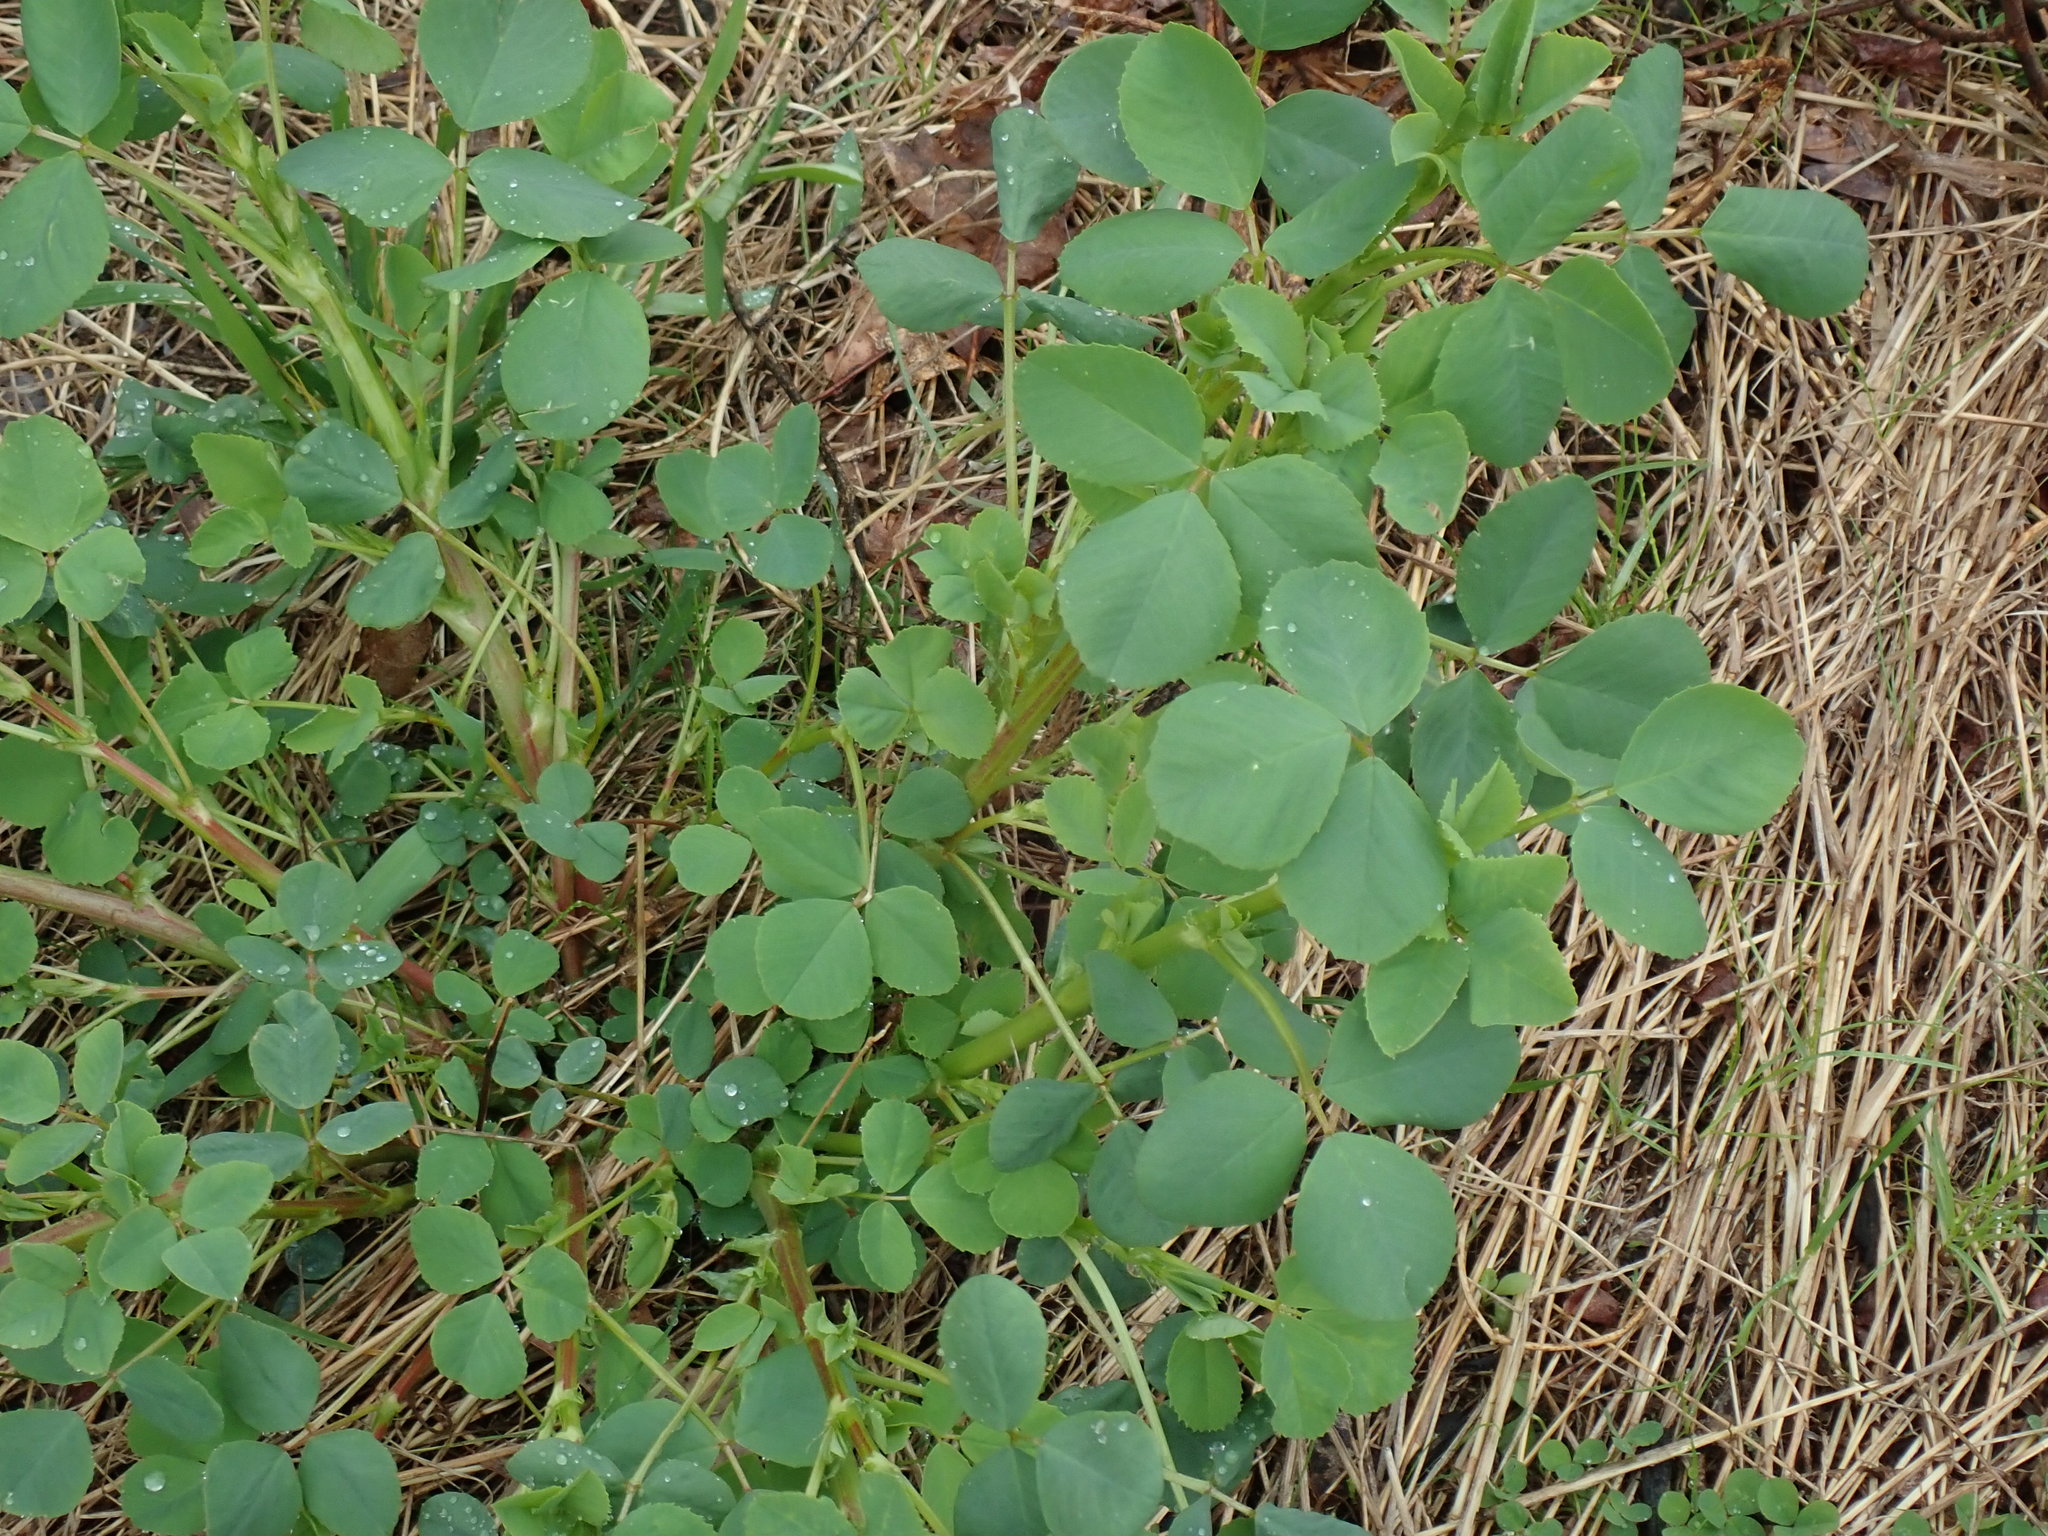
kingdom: Plantae
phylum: Tracheophyta
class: Magnoliopsida
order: Fabales
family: Fabaceae
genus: Melilotus
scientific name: Melilotus
